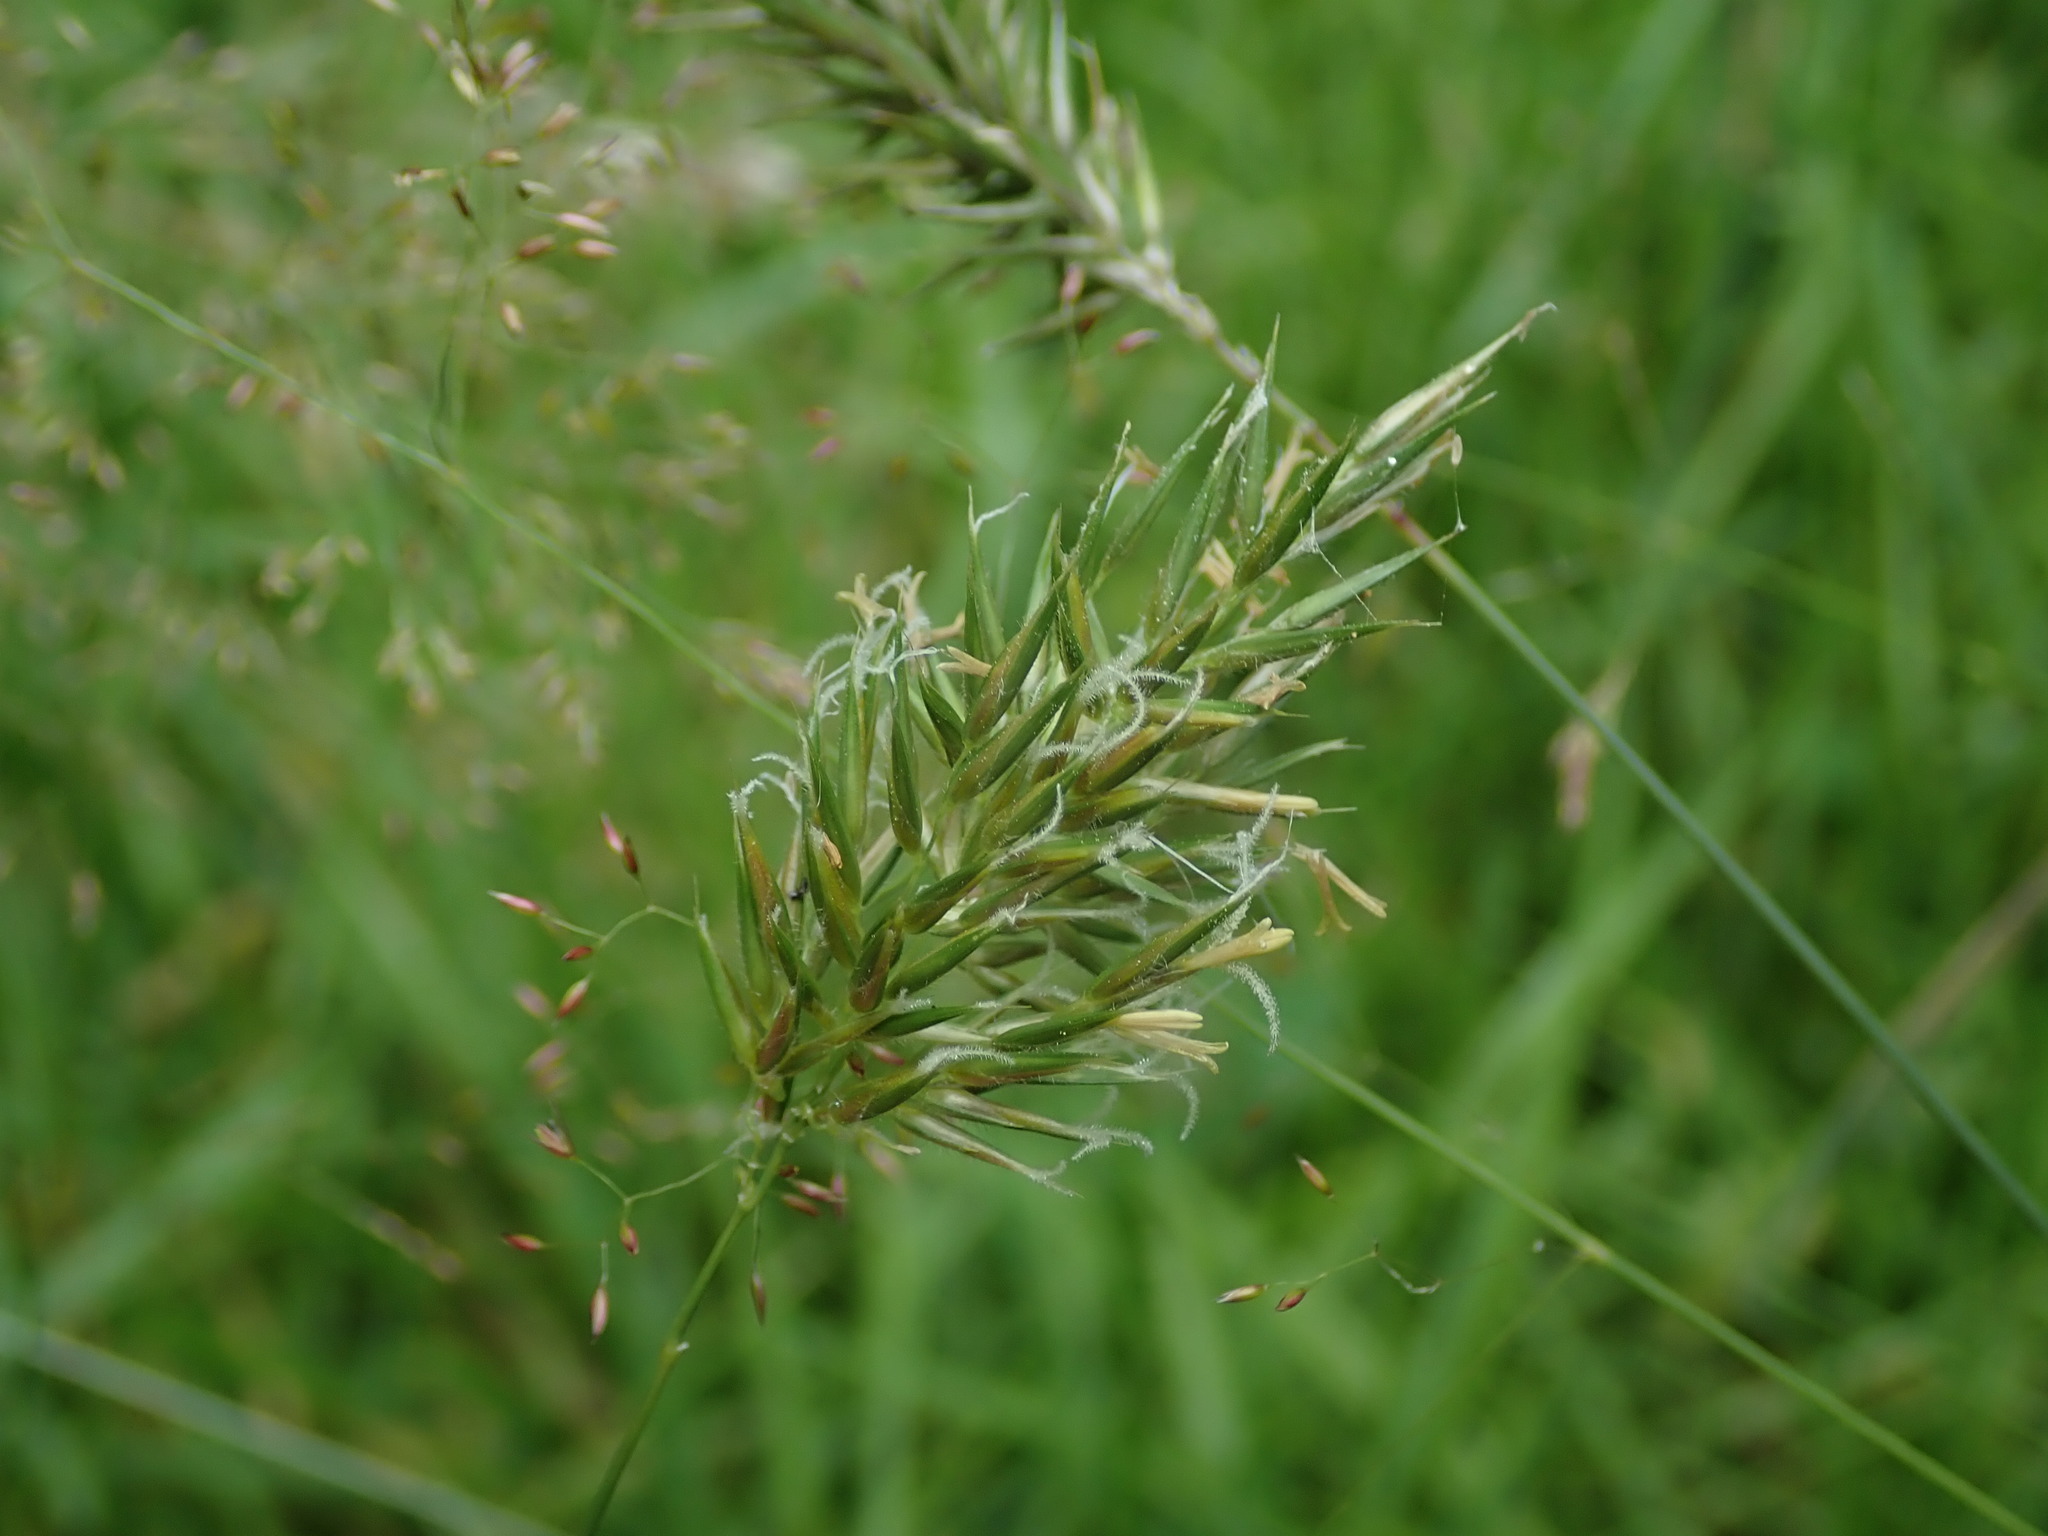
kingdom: Plantae
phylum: Tracheophyta
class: Liliopsida
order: Poales
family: Poaceae
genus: Anthoxanthum
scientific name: Anthoxanthum odoratum
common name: Sweet vernalgrass
